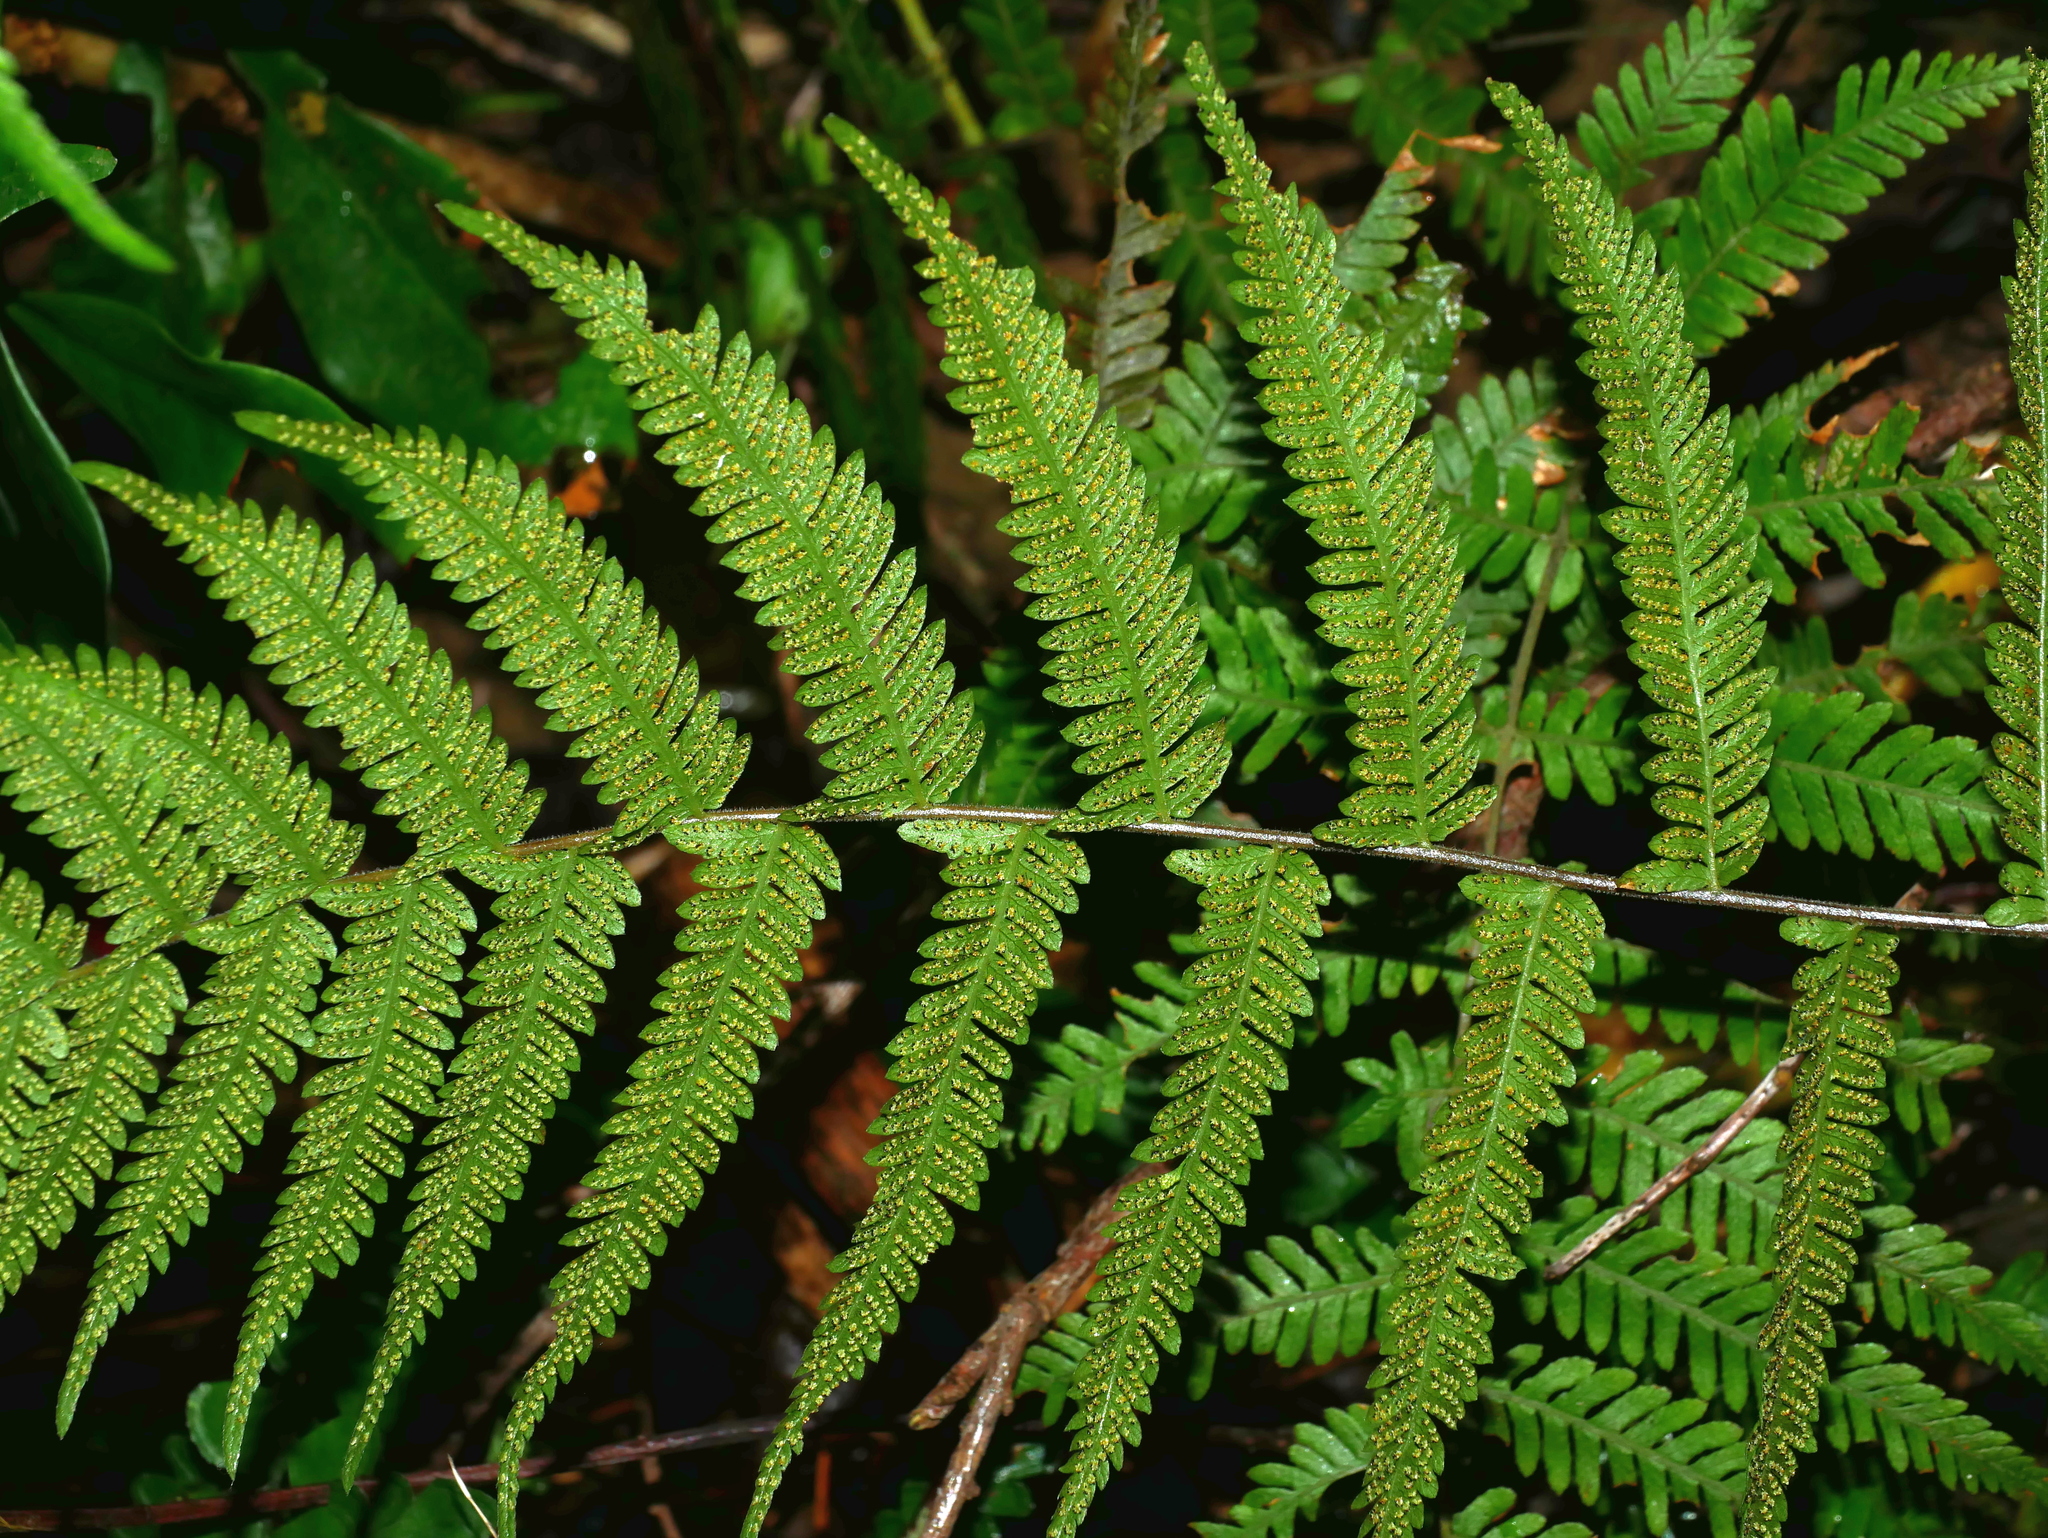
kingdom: Plantae
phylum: Tracheophyta
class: Polypodiopsida
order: Polypodiales
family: Thelypteridaceae
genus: Amauropelta
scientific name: Amauropelta glanduligera
